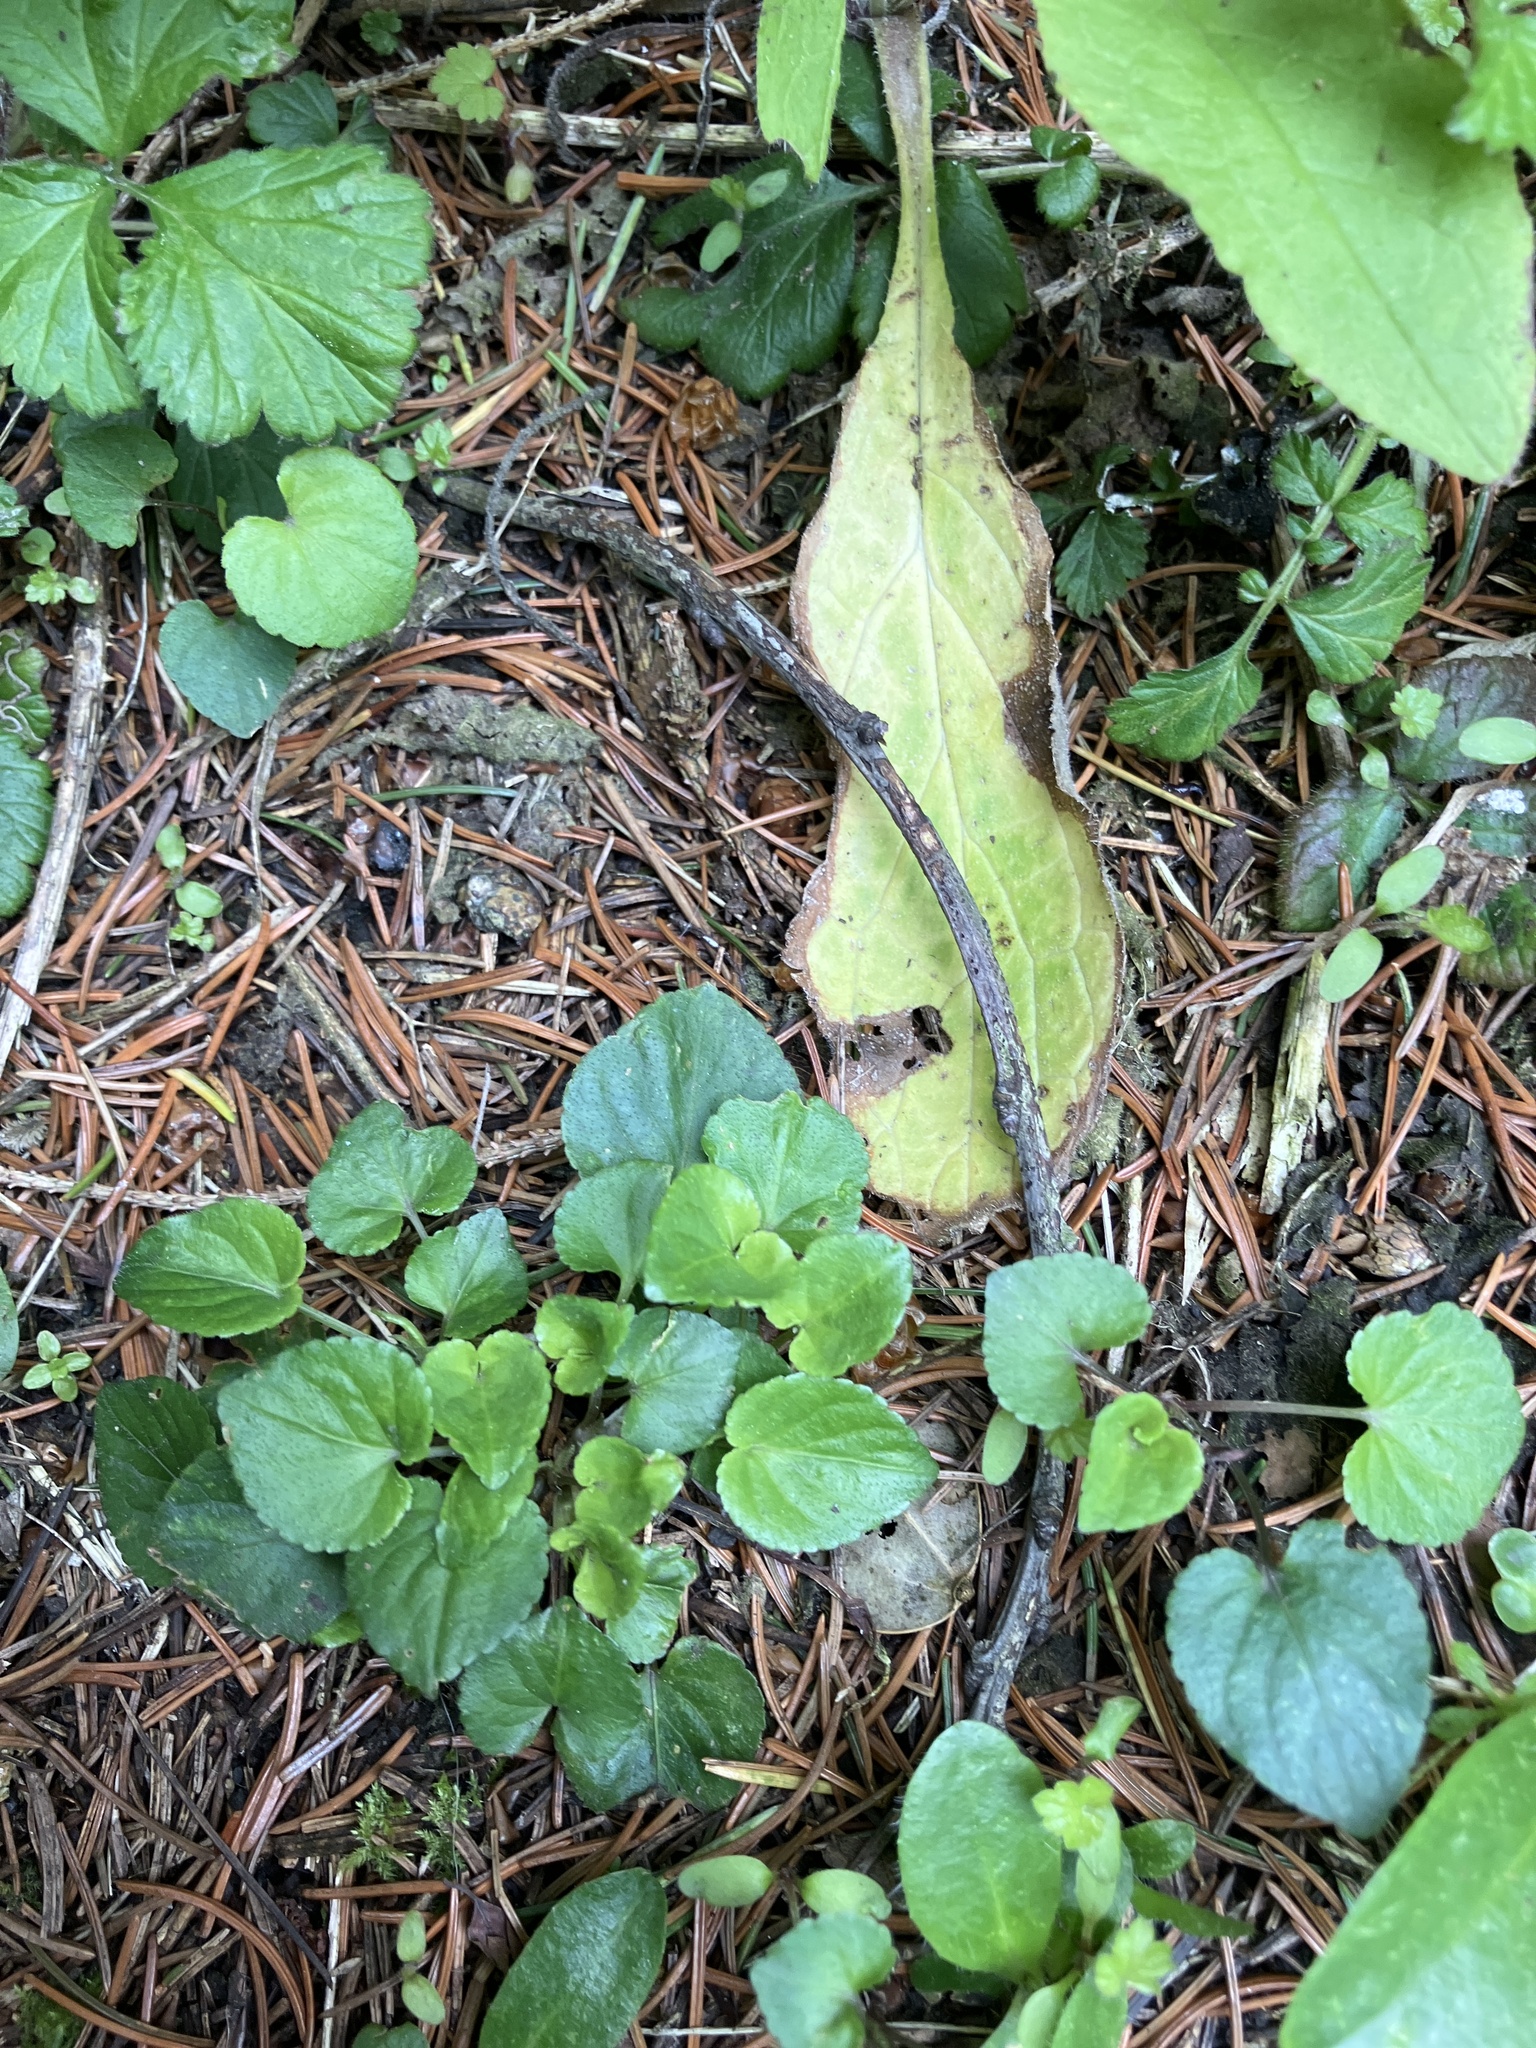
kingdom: Plantae
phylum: Tracheophyta
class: Magnoliopsida
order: Ranunculales
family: Ranunculaceae
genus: Ficaria
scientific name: Ficaria verna
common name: Lesser celandine
